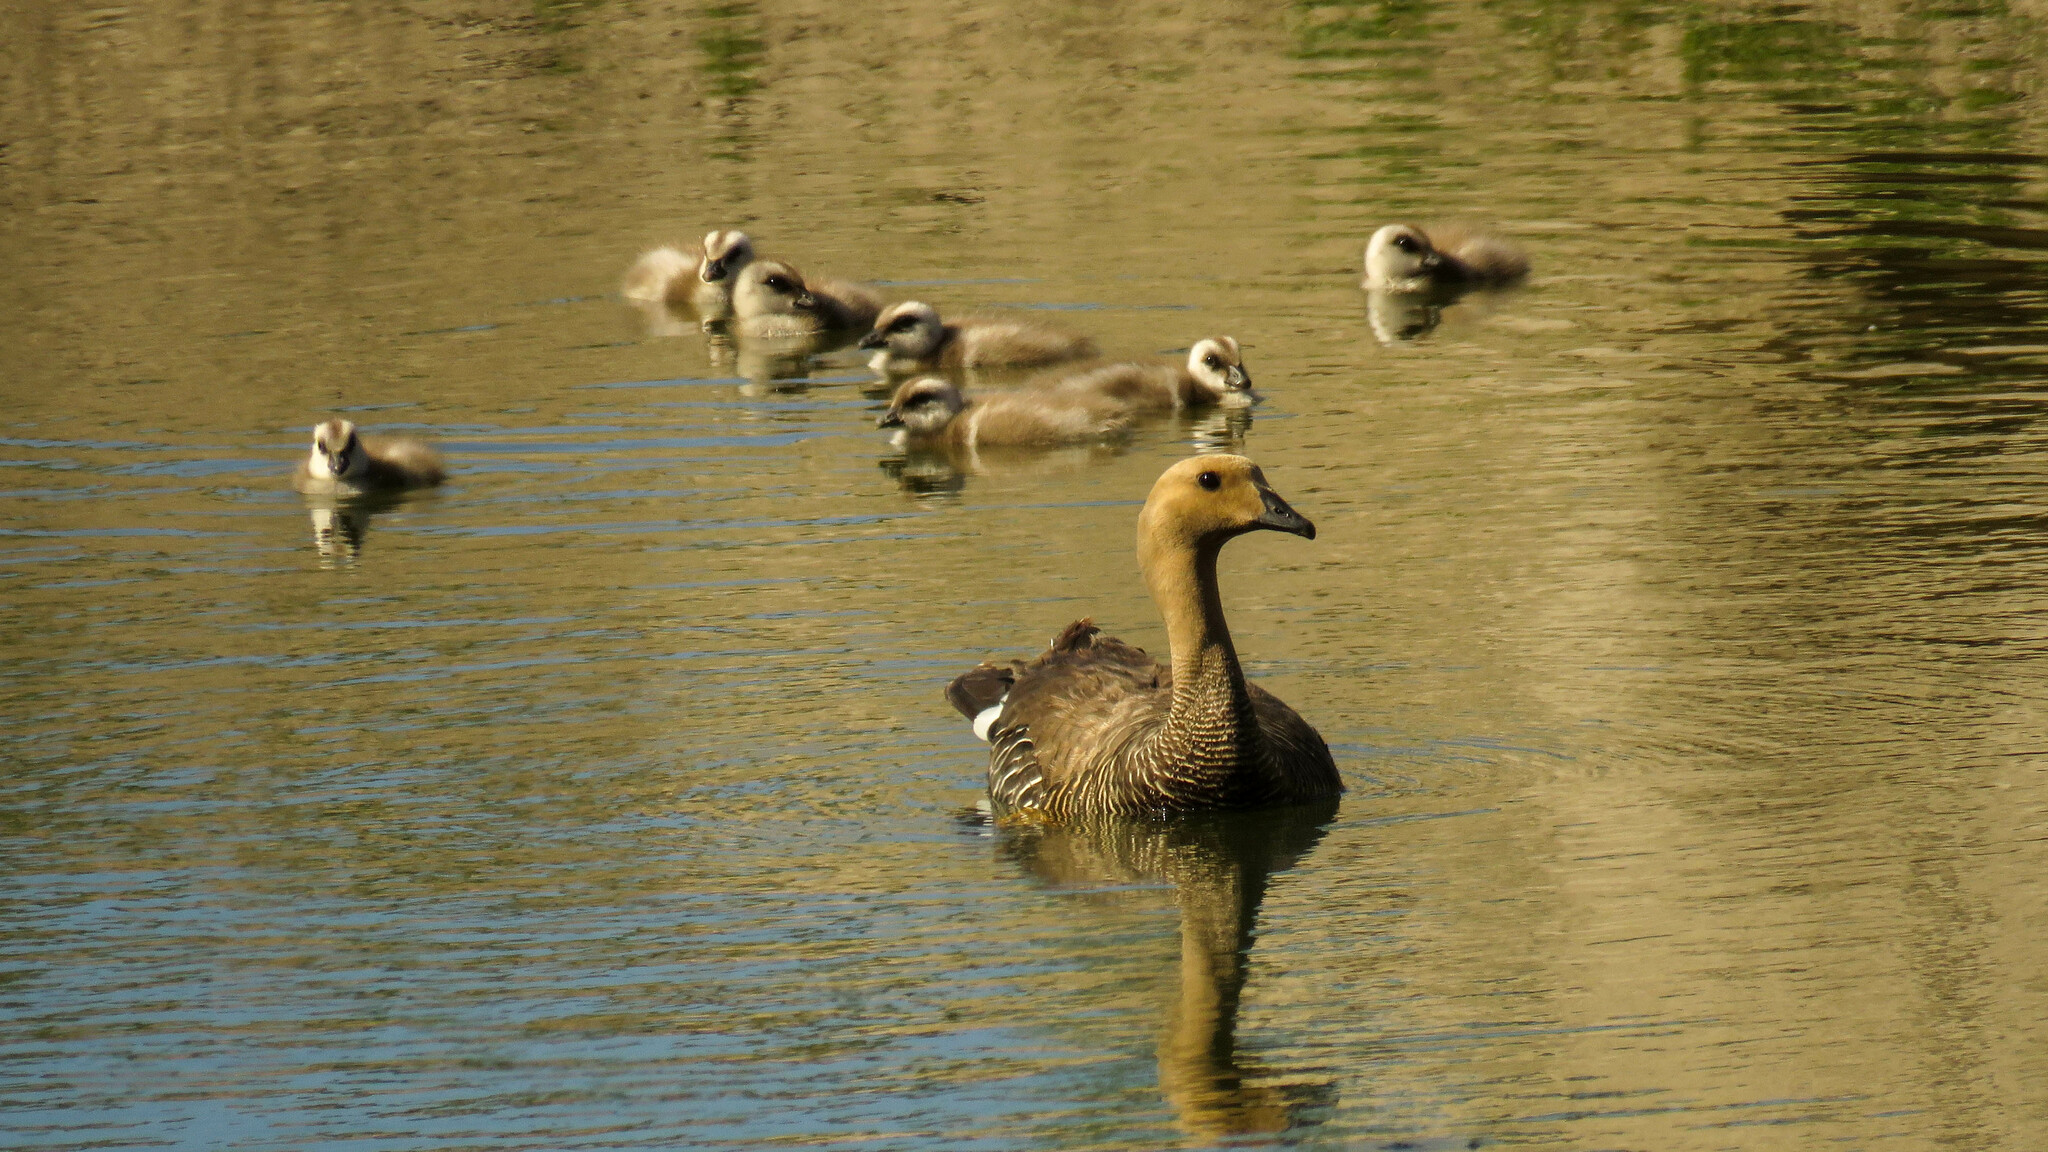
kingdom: Animalia
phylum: Chordata
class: Aves
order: Anseriformes
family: Anatidae
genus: Chloephaga
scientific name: Chloephaga picta
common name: Upland goose
